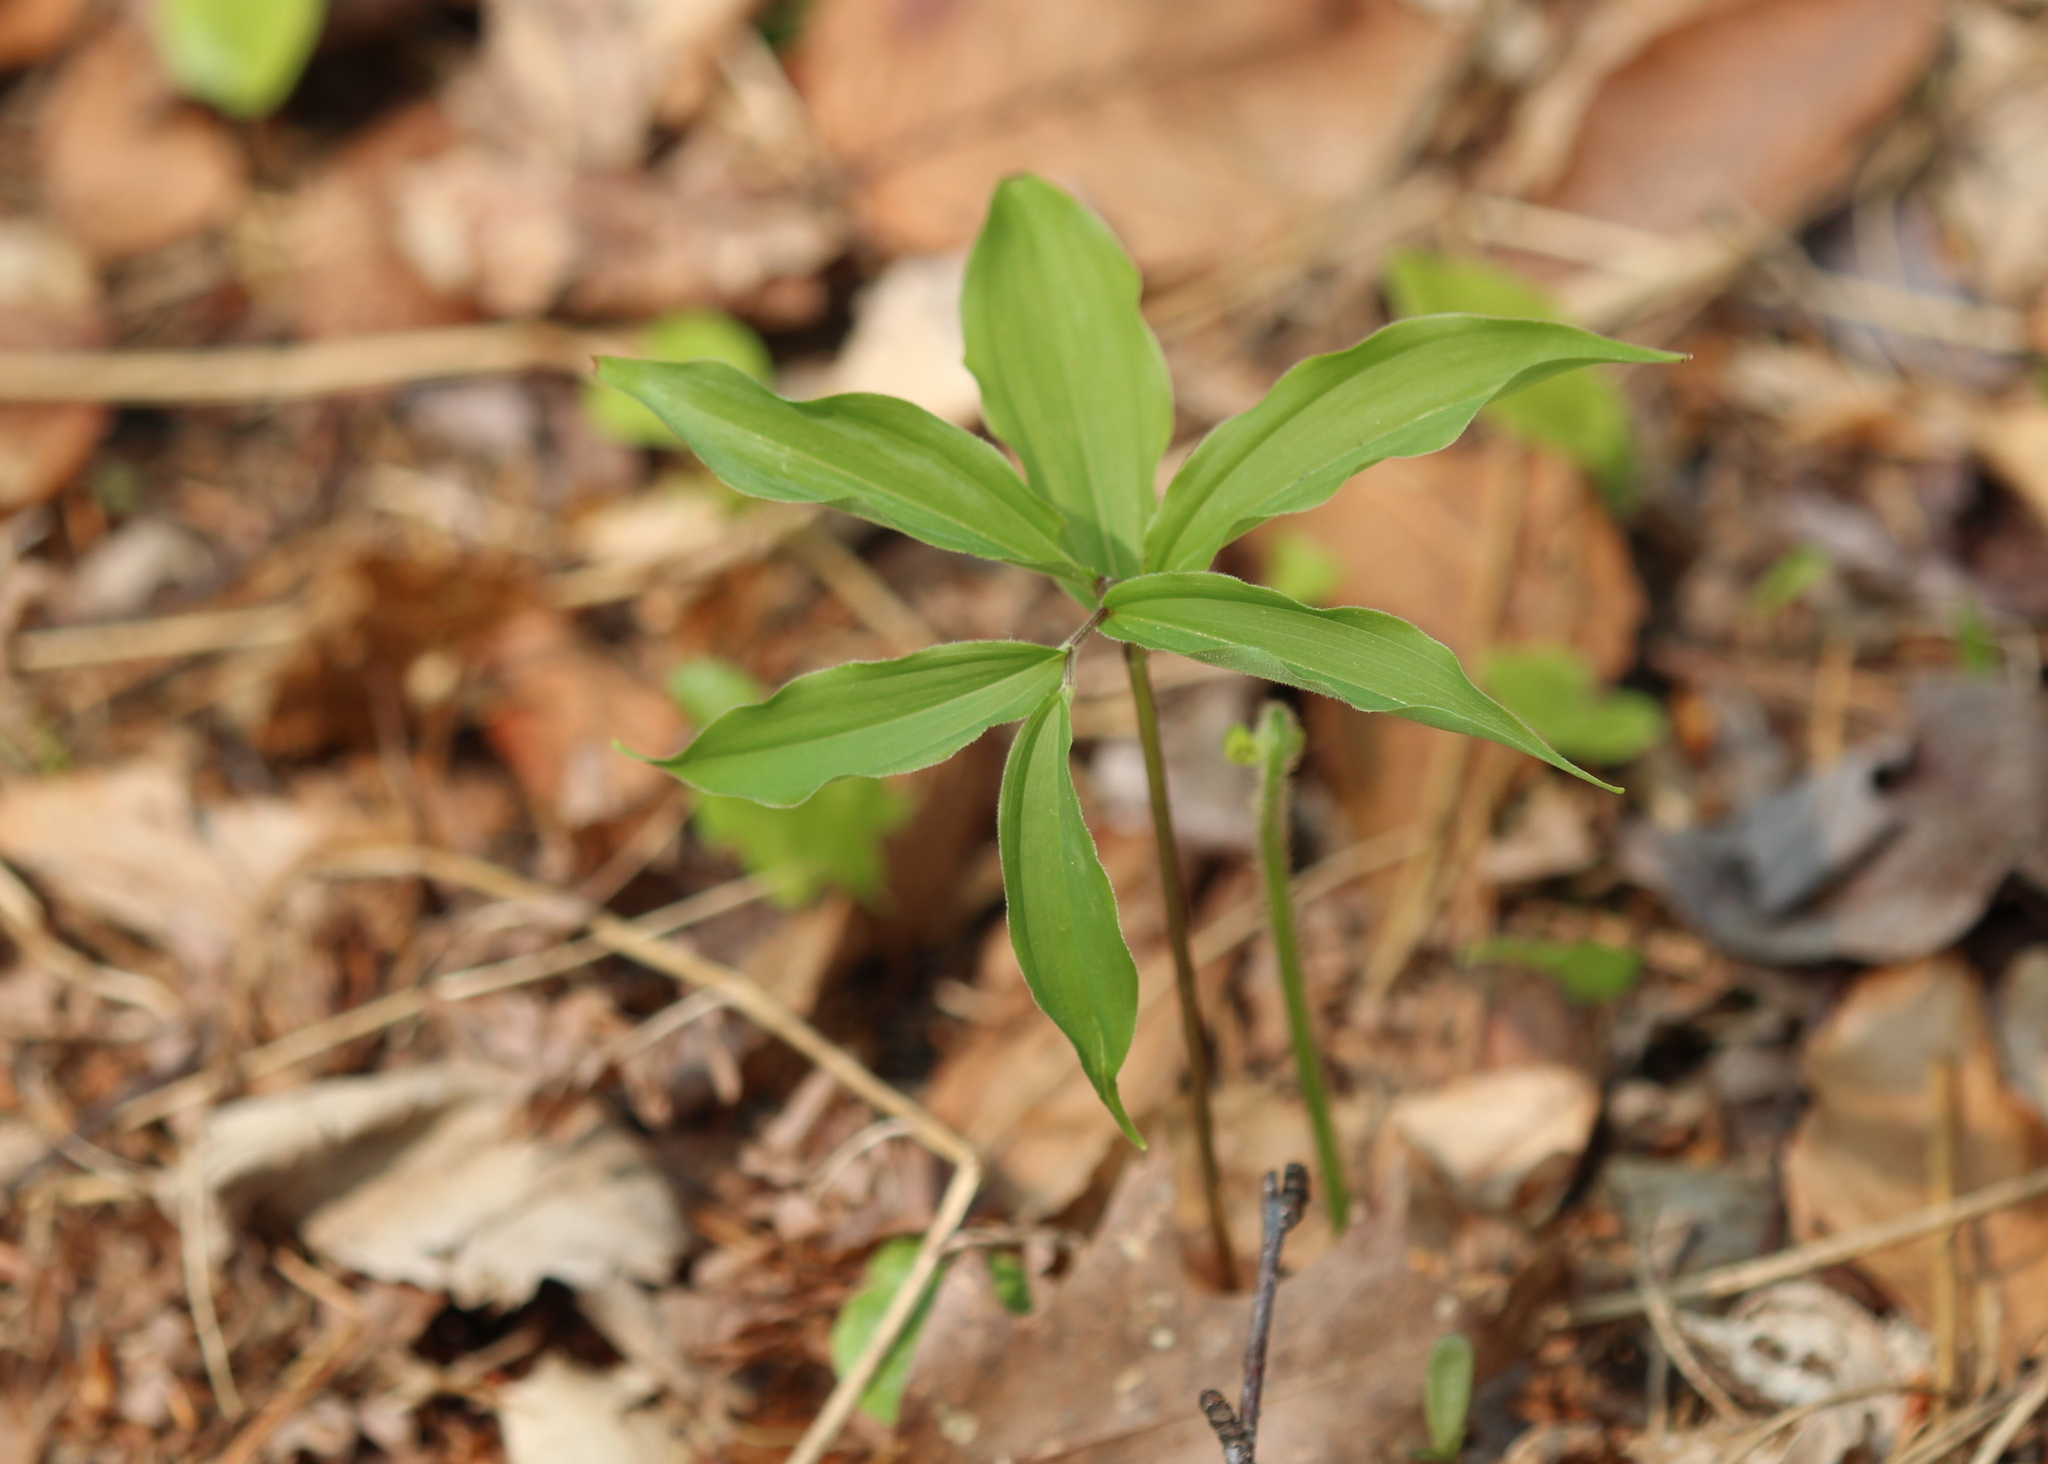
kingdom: Plantae
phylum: Tracheophyta
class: Liliopsida
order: Asparagales
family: Asparagaceae
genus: Maianthemum
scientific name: Maianthemum racemosum
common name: False spikenard
